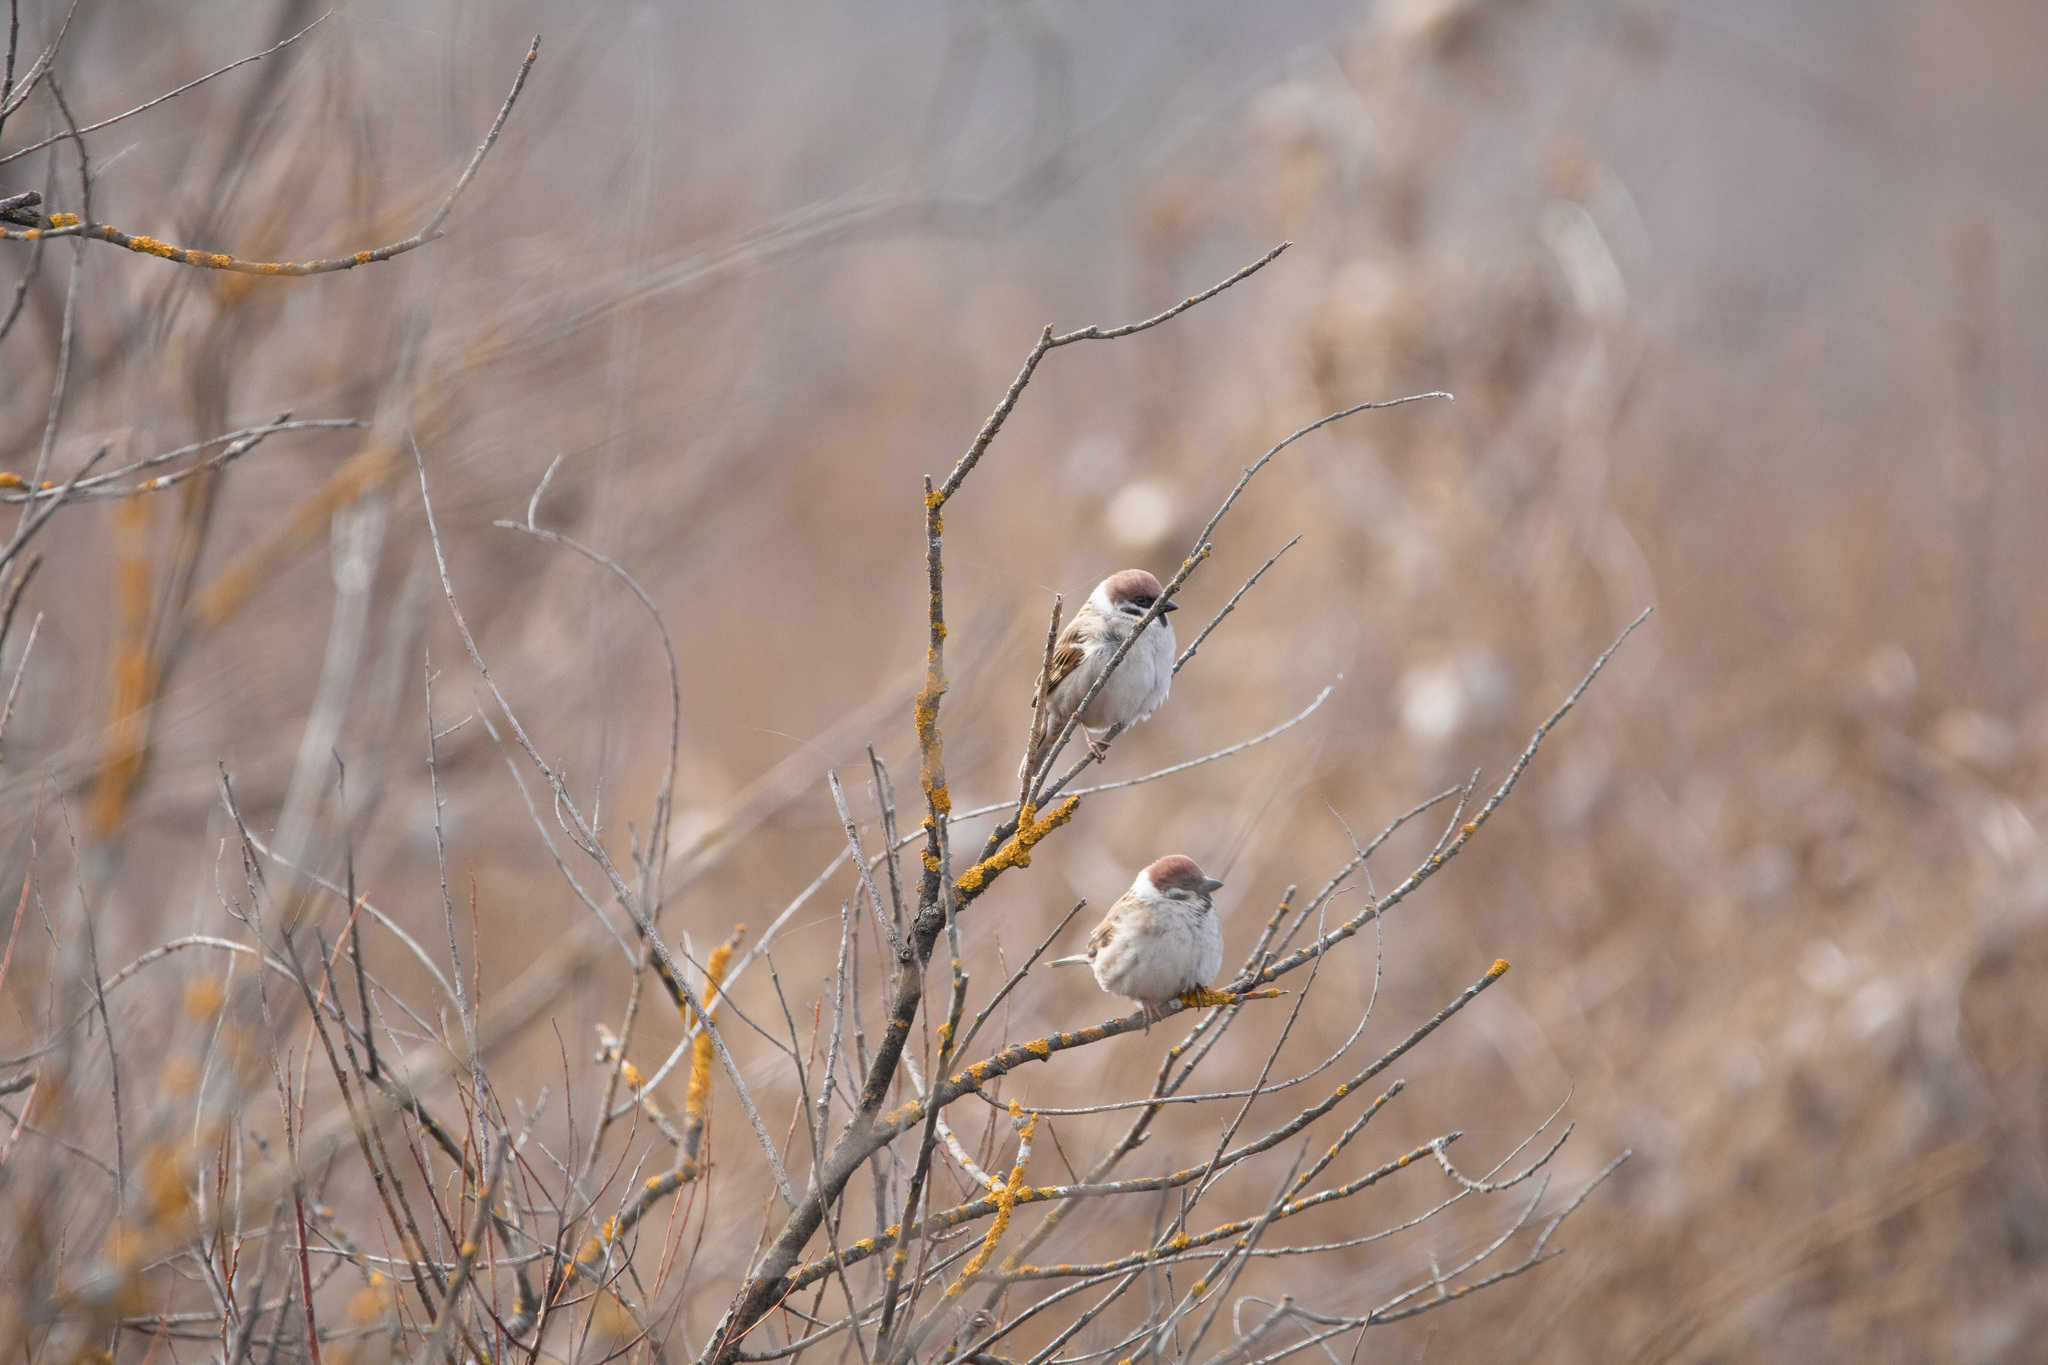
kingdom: Animalia
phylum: Chordata
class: Aves
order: Passeriformes
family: Passeridae
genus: Passer
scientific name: Passer montanus
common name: Eurasian tree sparrow
